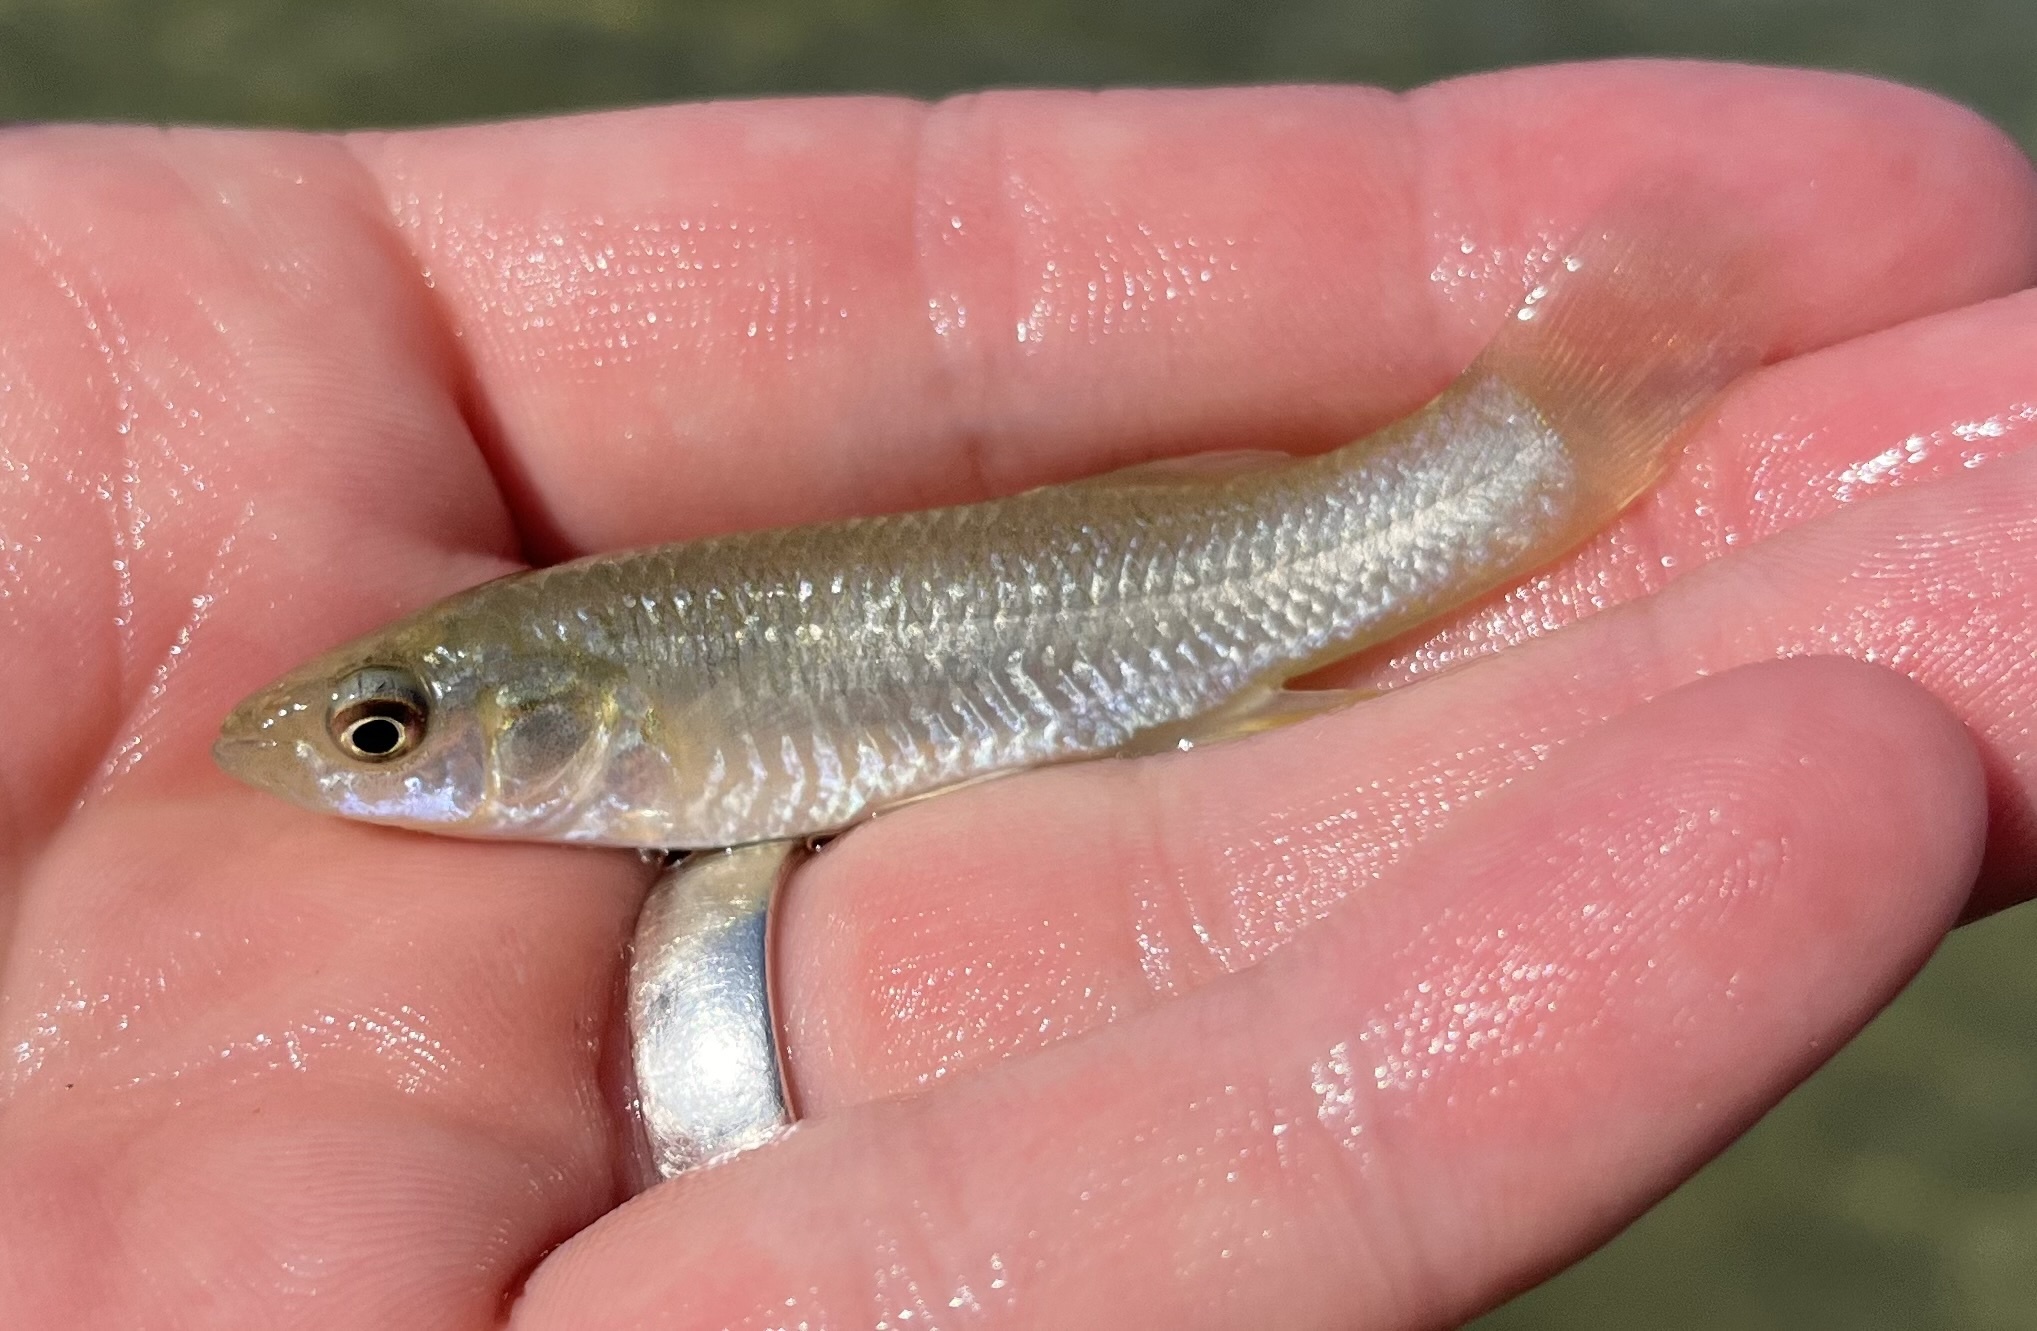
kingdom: Animalia
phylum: Chordata
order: Cyprinodontiformes
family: Fundulidae
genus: Fundulus
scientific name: Fundulus grandis
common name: Gulf killifish
